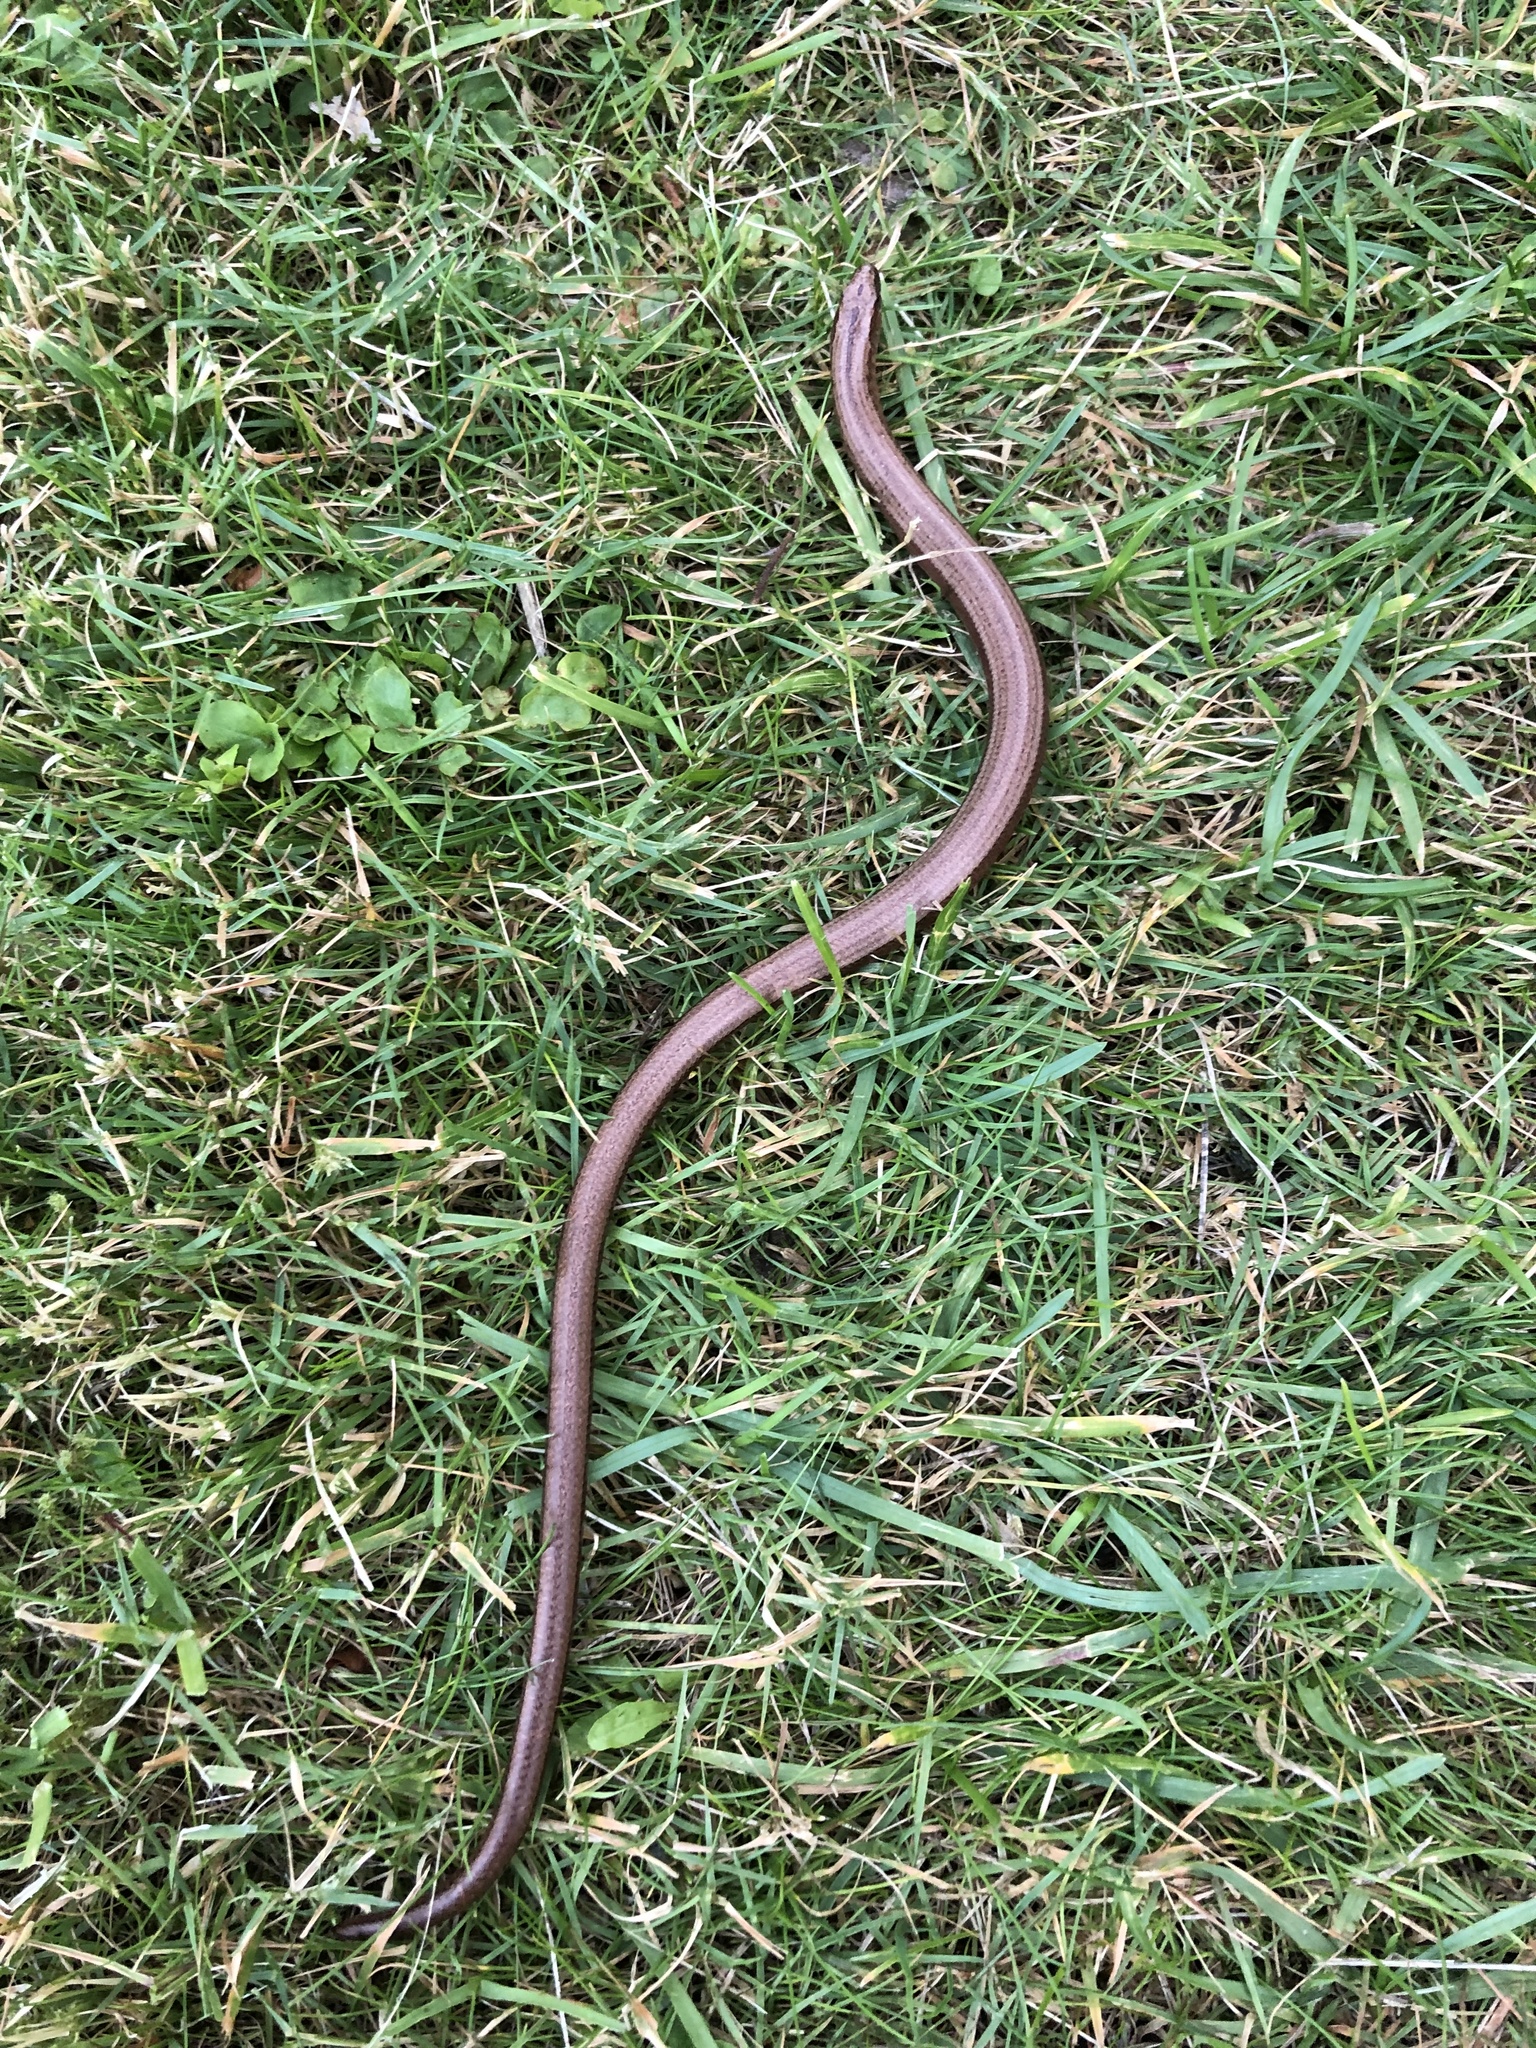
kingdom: Animalia
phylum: Chordata
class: Squamata
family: Anguidae
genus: Anguis
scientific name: Anguis fragilis
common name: Slow worm
